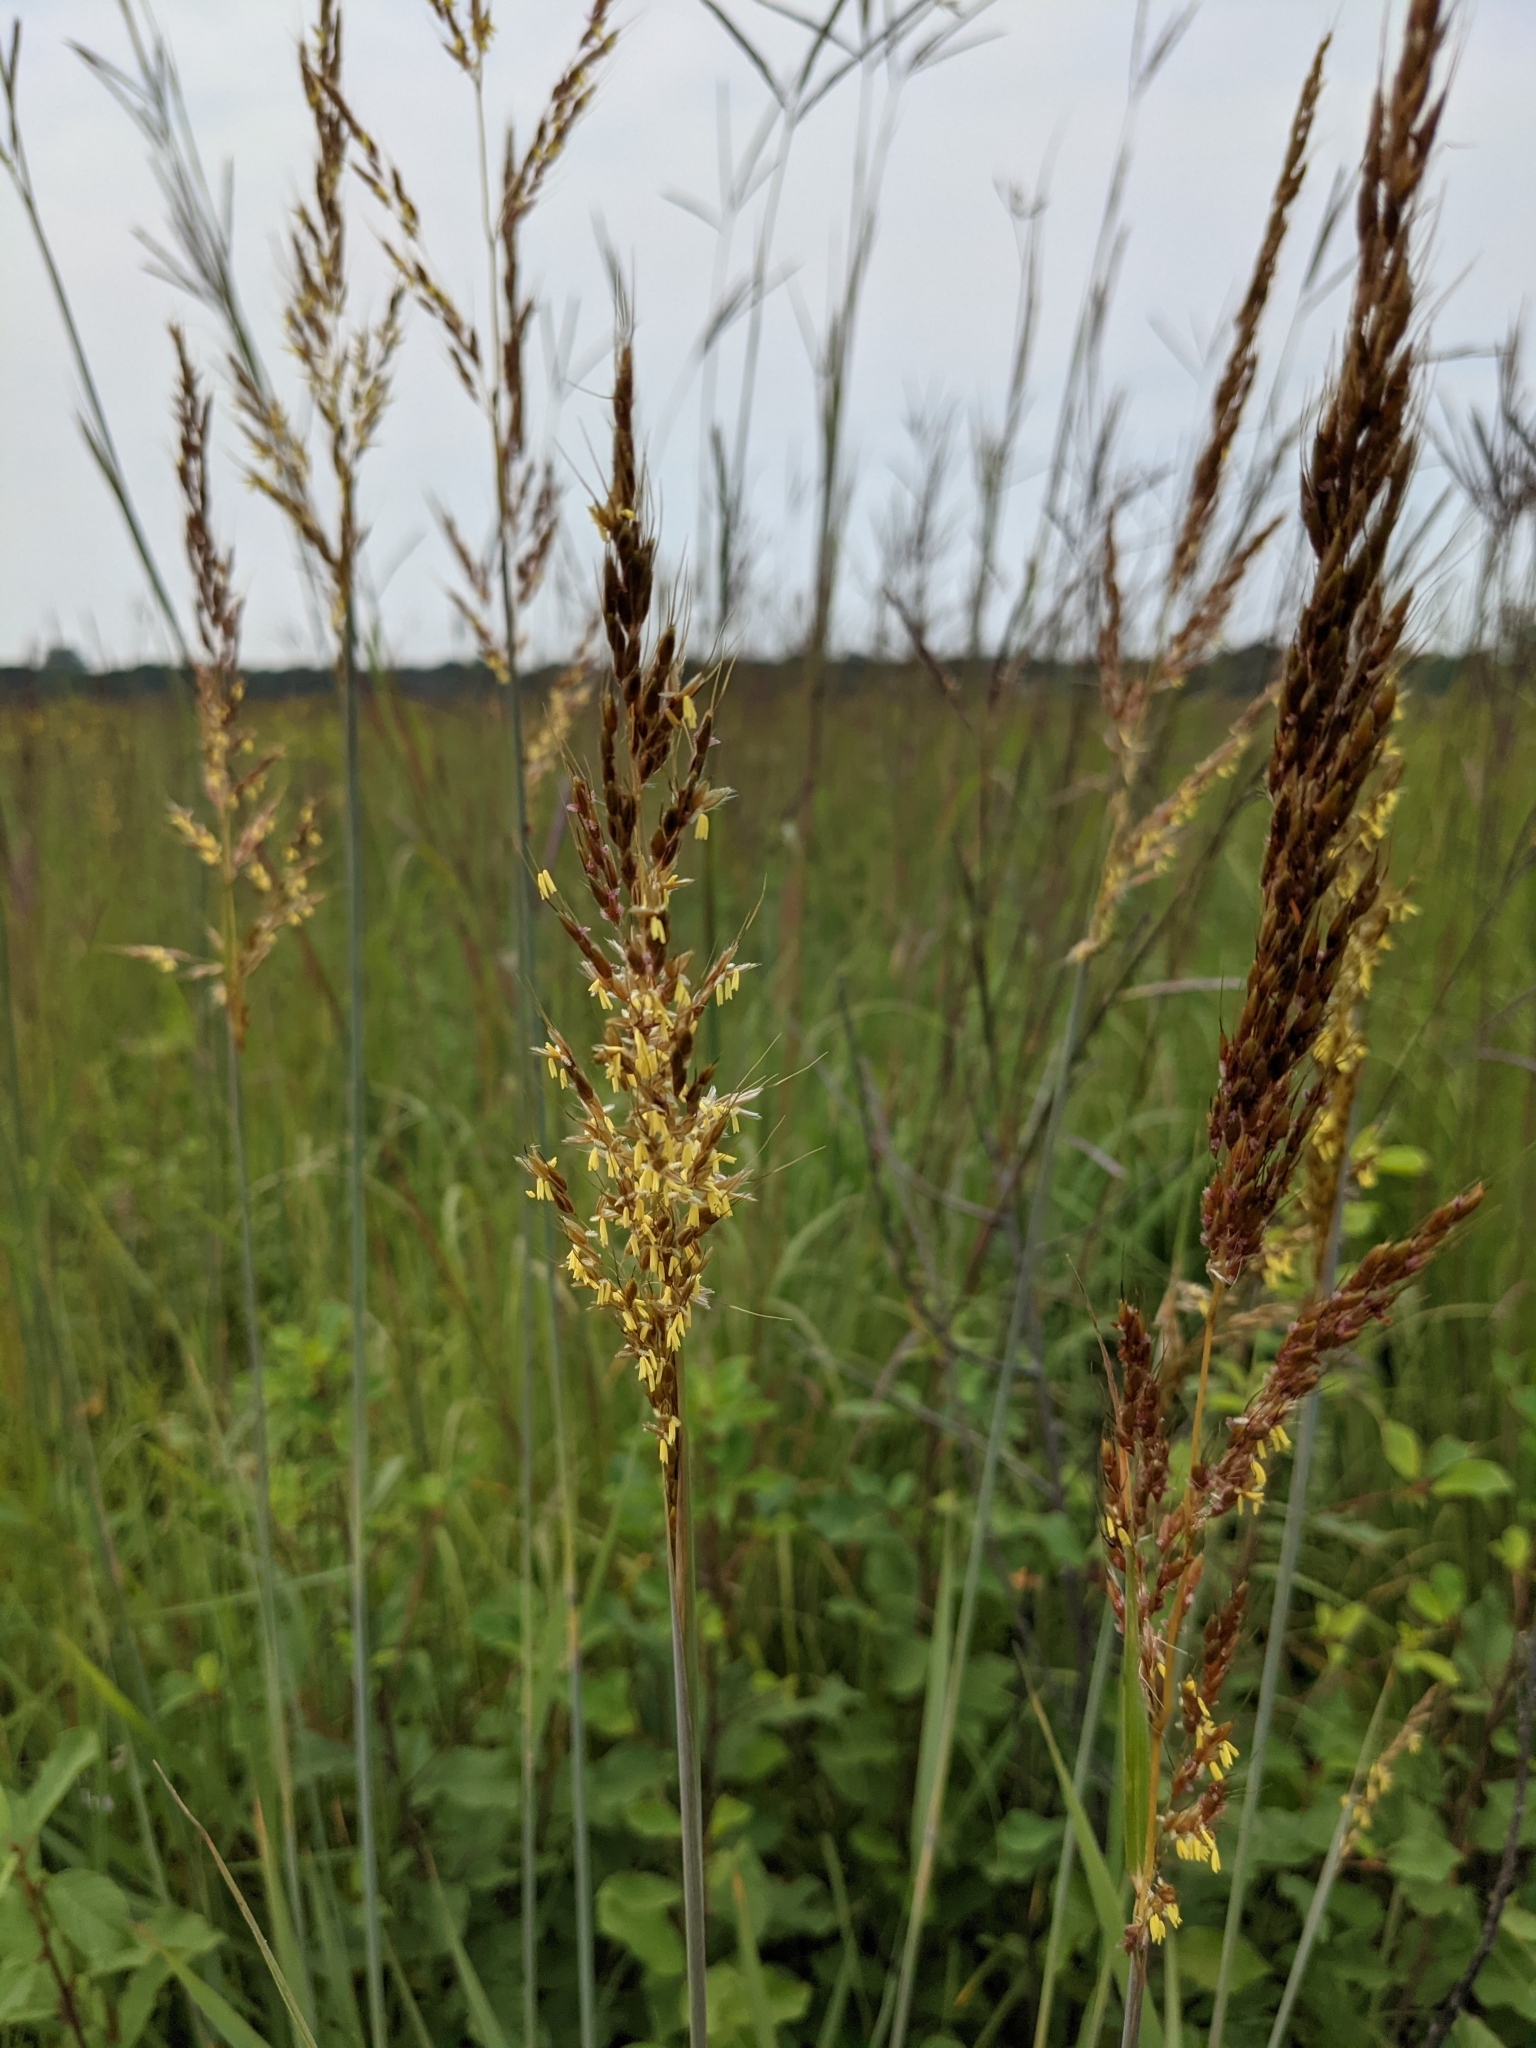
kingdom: Plantae
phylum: Tracheophyta
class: Liliopsida
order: Poales
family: Poaceae
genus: Sorghastrum
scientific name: Sorghastrum nutans
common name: Indian grass
